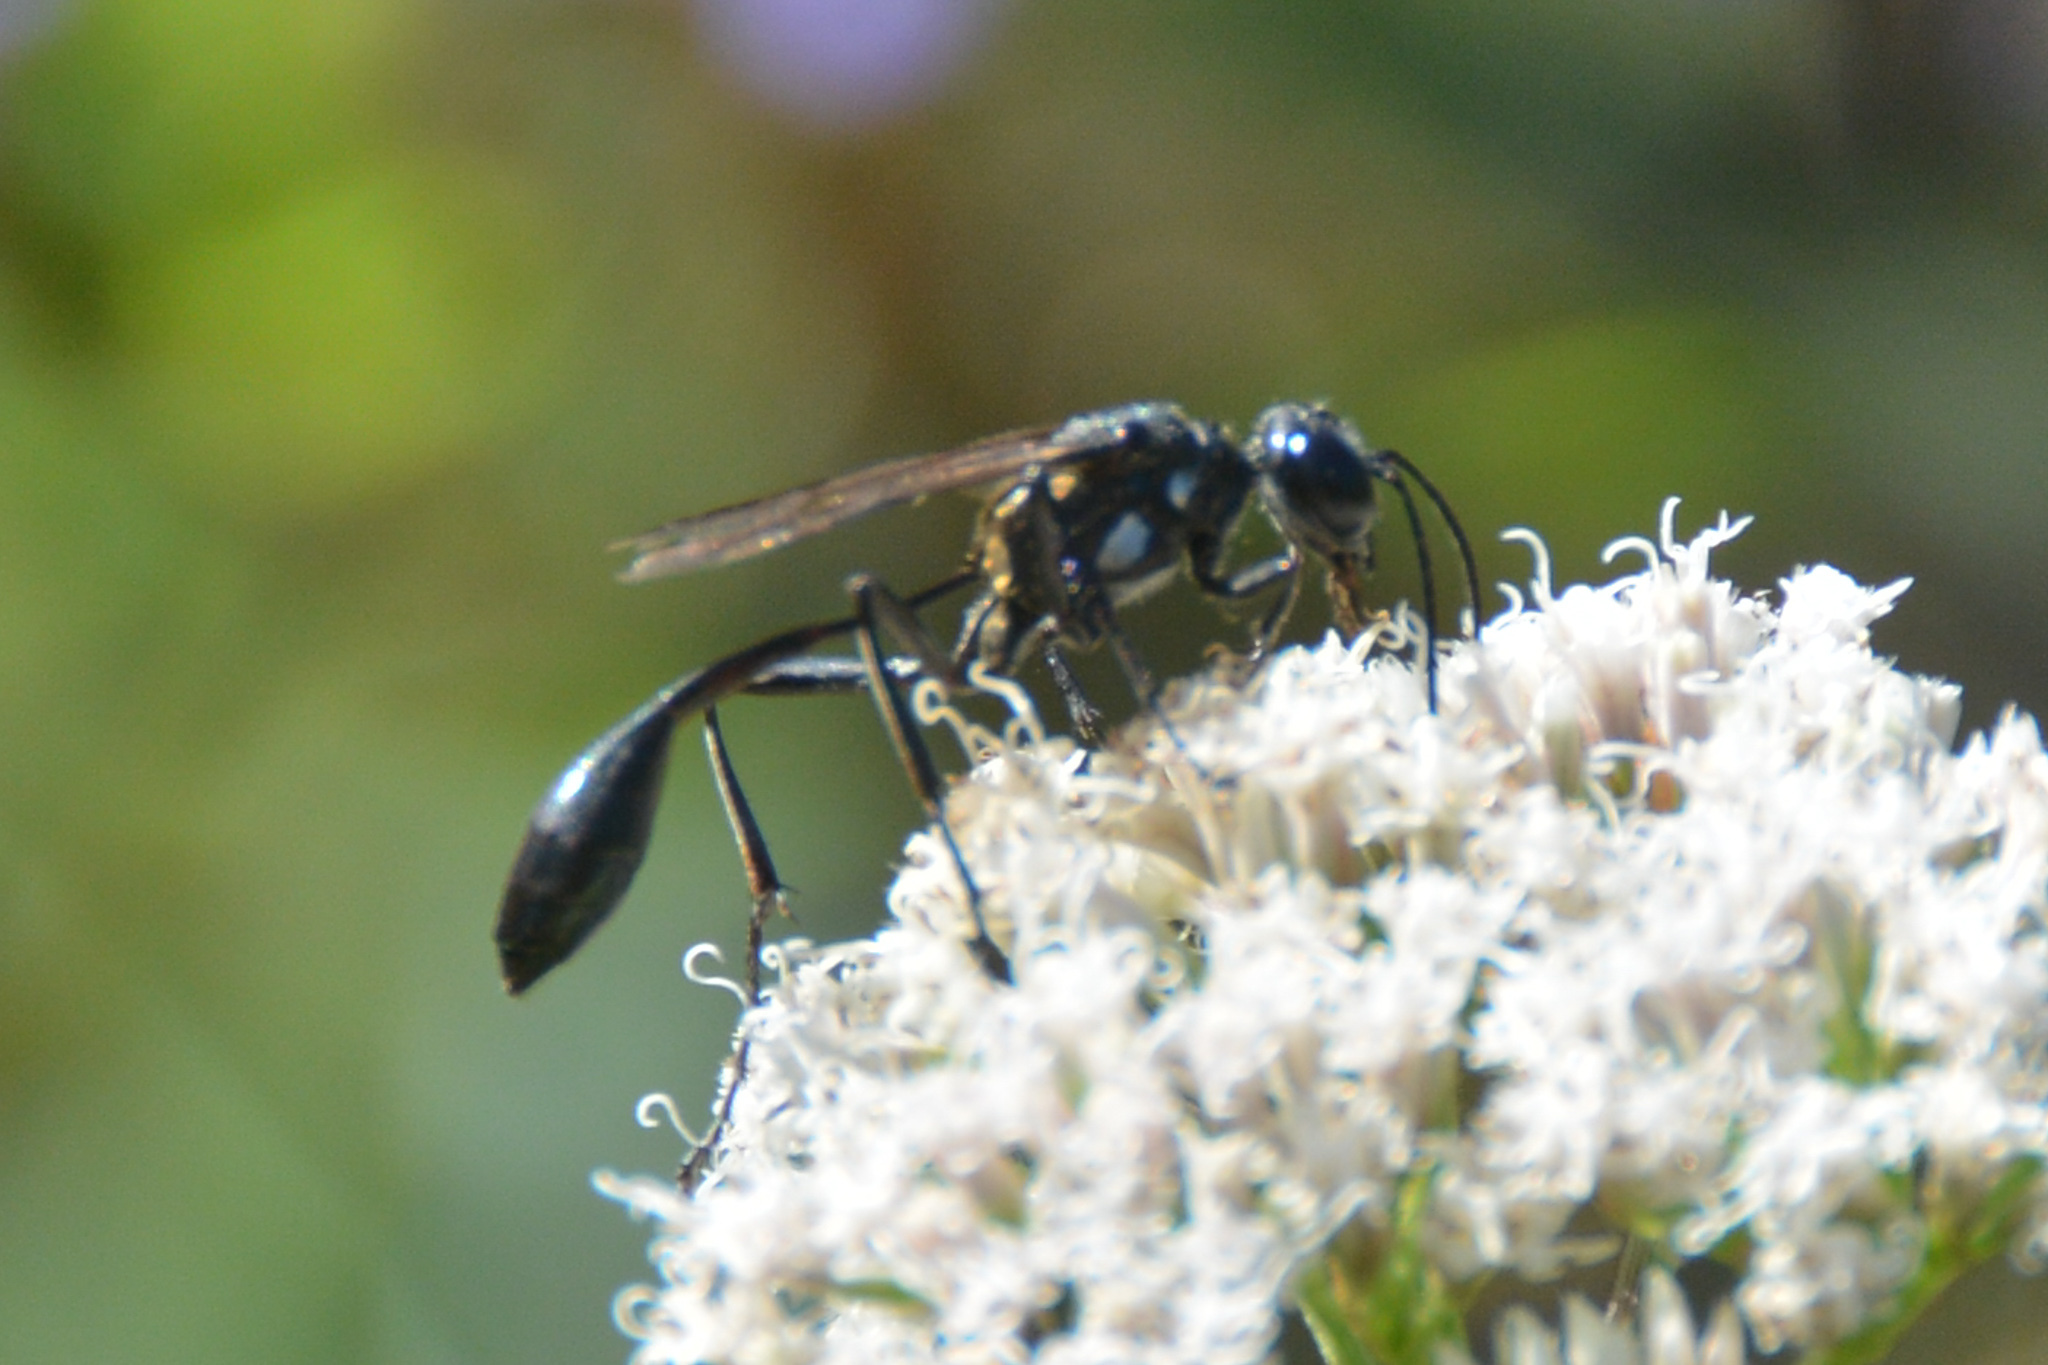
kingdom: Animalia
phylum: Arthropoda
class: Insecta
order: Hymenoptera
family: Sphecidae
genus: Eremnophila
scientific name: Eremnophila aureonotata
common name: Gold-marked thread-waisted wasp
